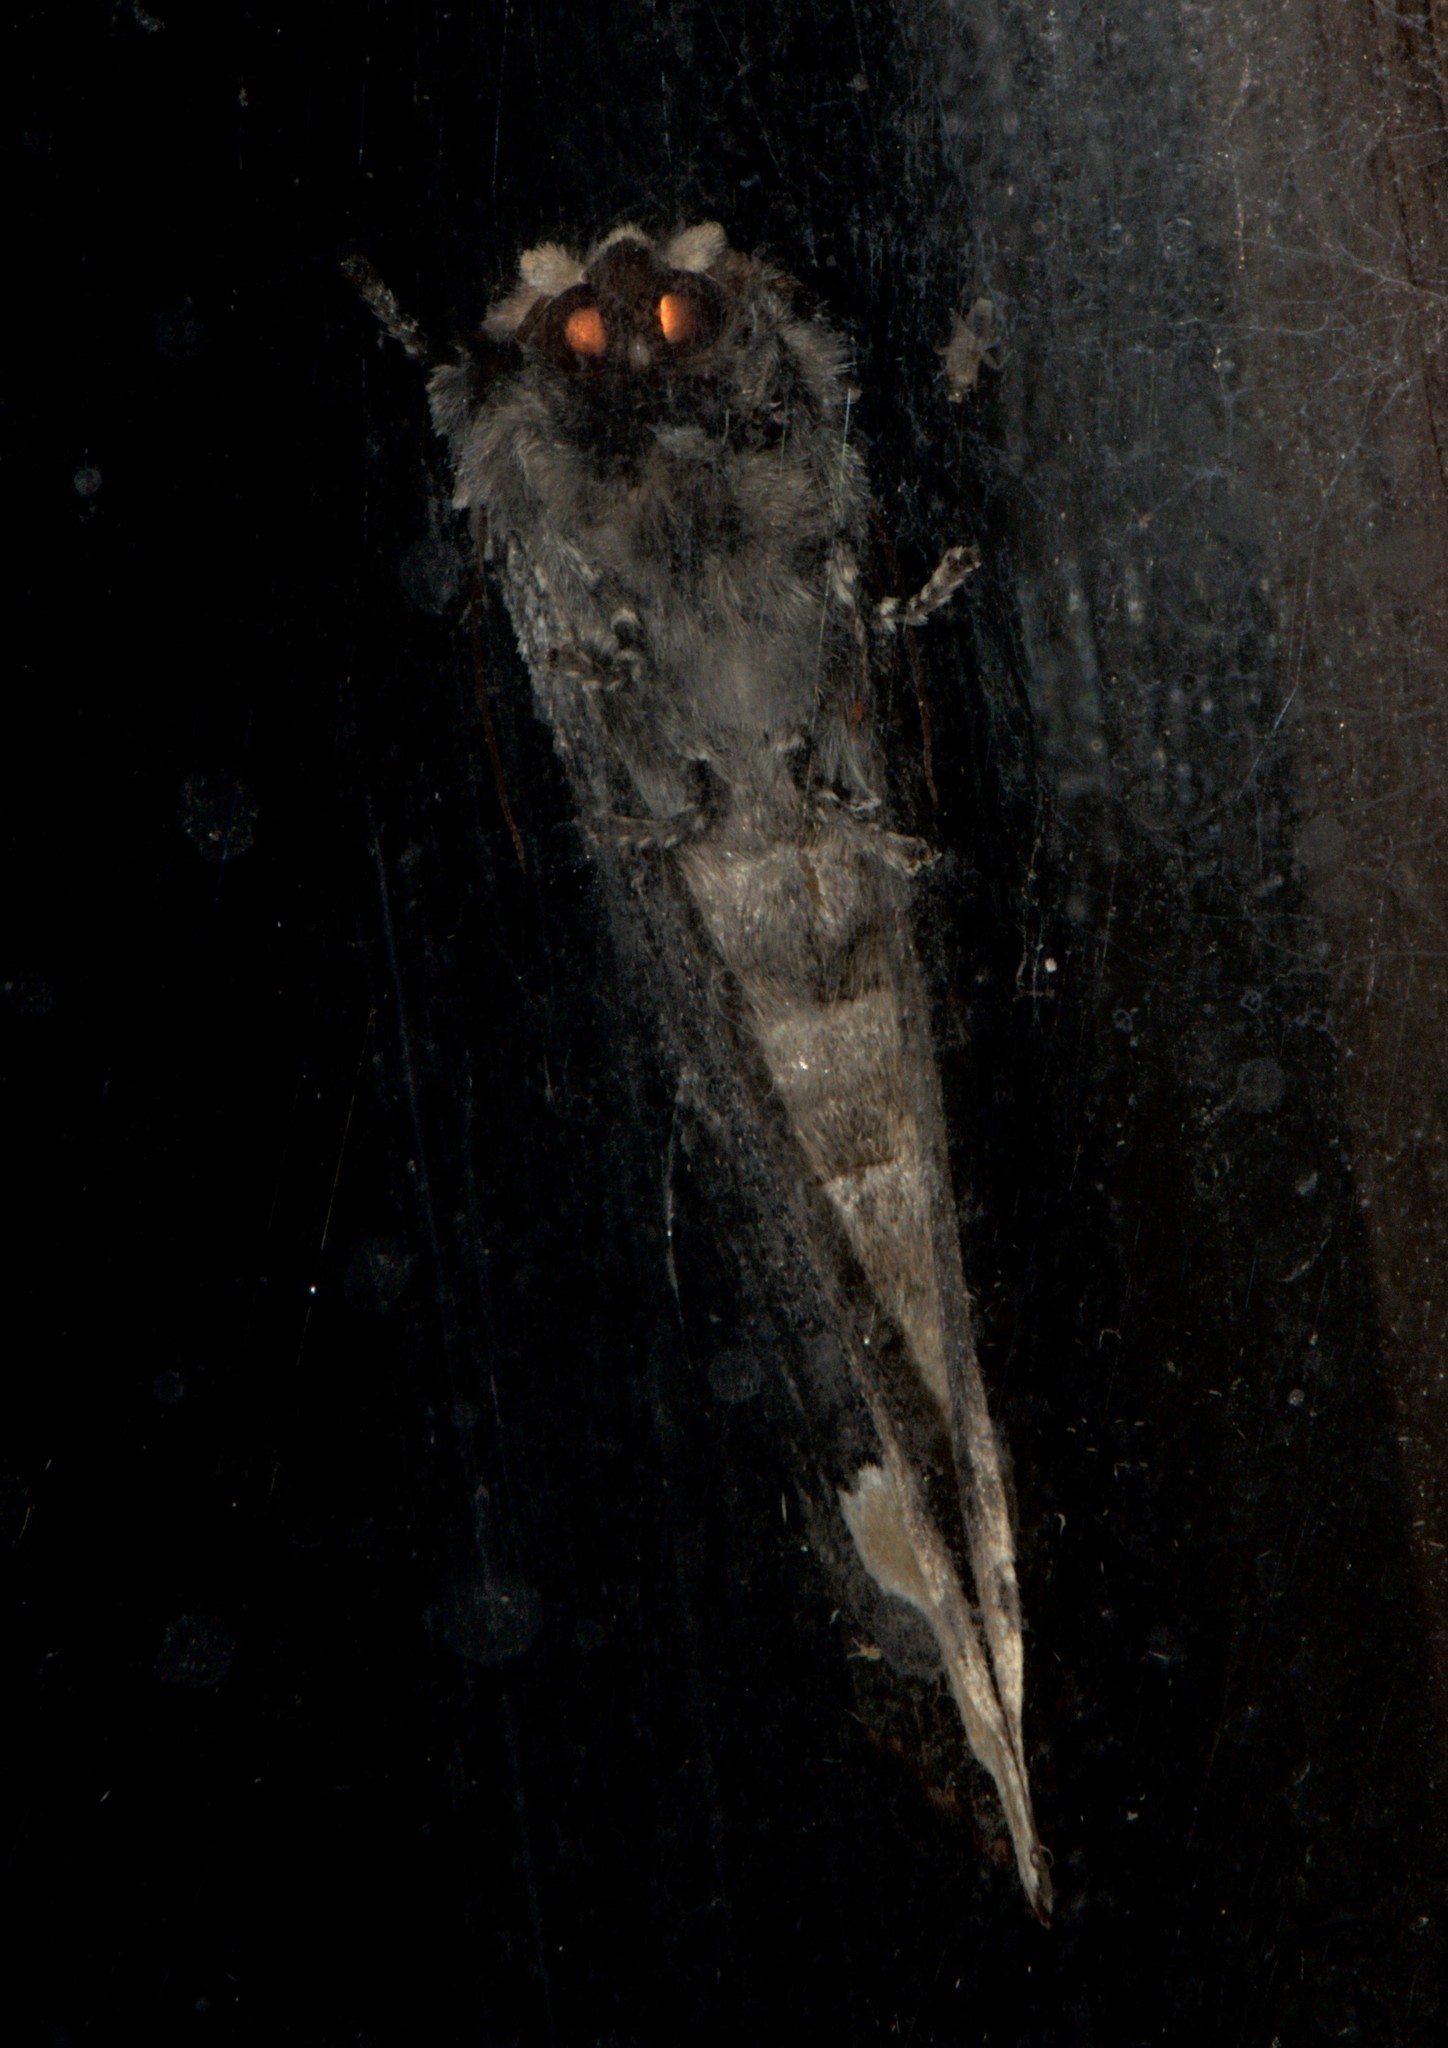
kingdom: Animalia
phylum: Arthropoda
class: Insecta
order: Lepidoptera
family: Notodontidae
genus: Phalera
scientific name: Phalera goniophora
